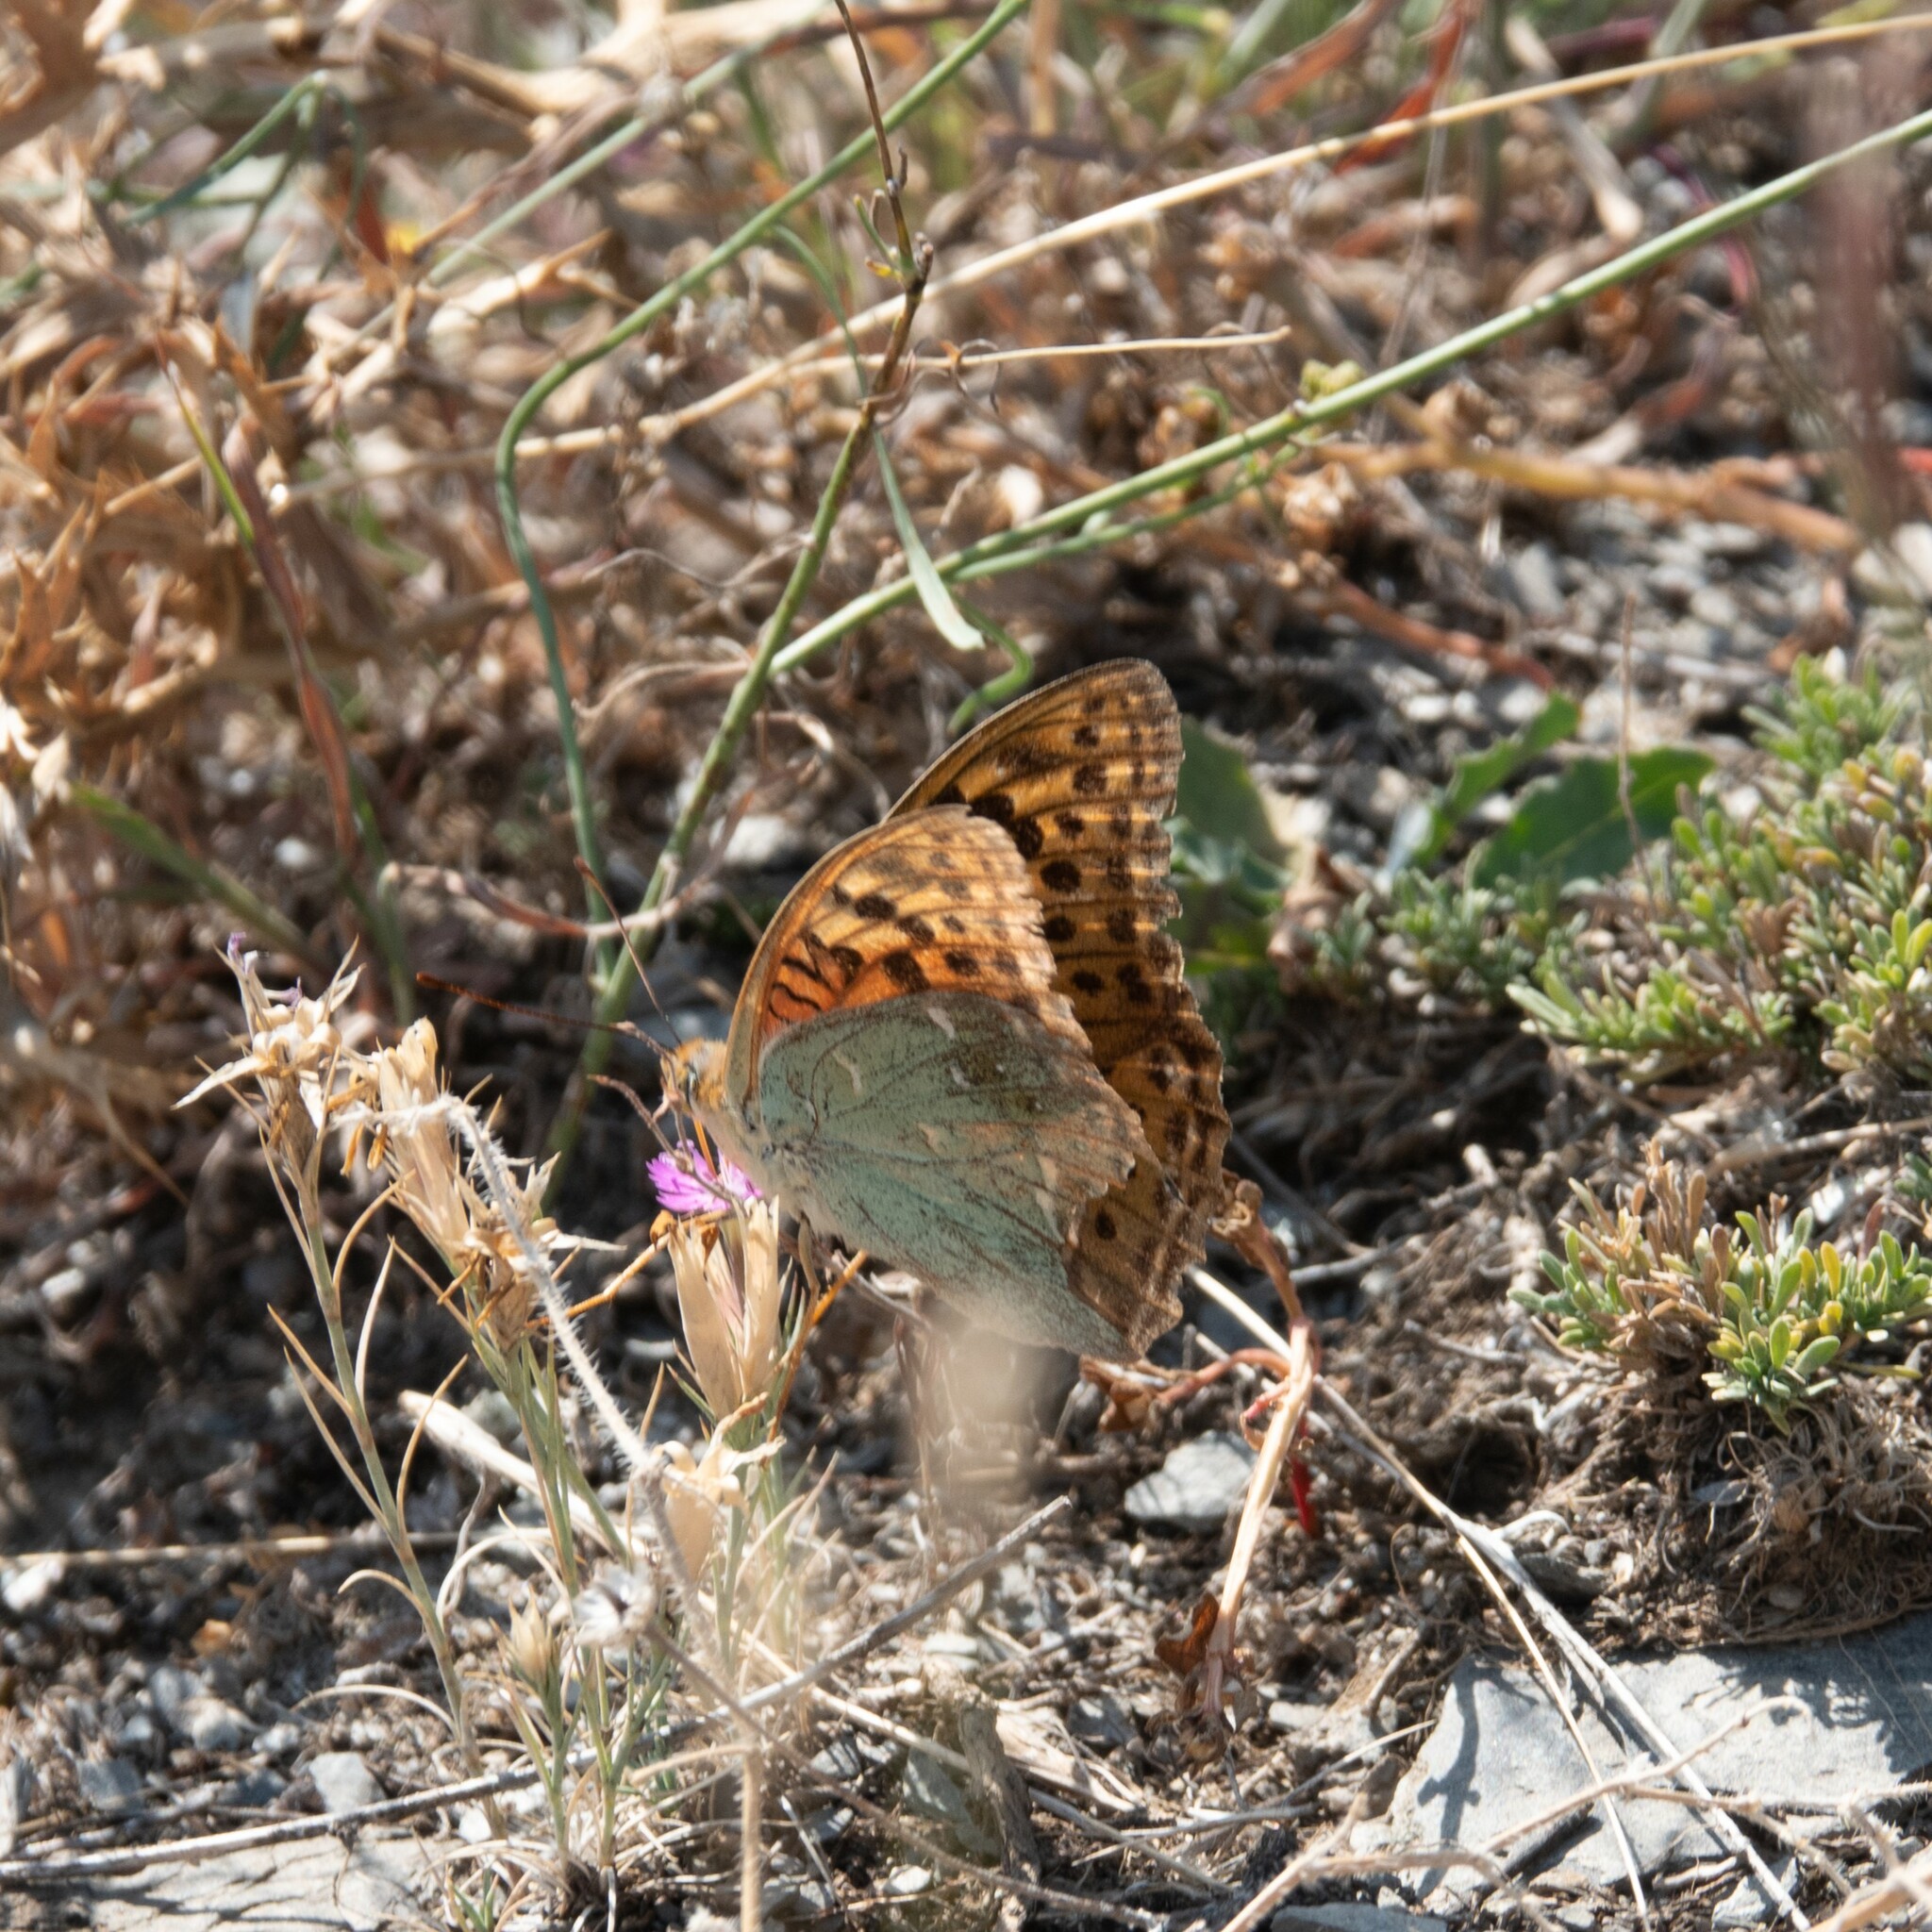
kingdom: Animalia
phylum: Arthropoda
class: Insecta
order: Lepidoptera
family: Nymphalidae
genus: Damora
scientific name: Damora pandora
